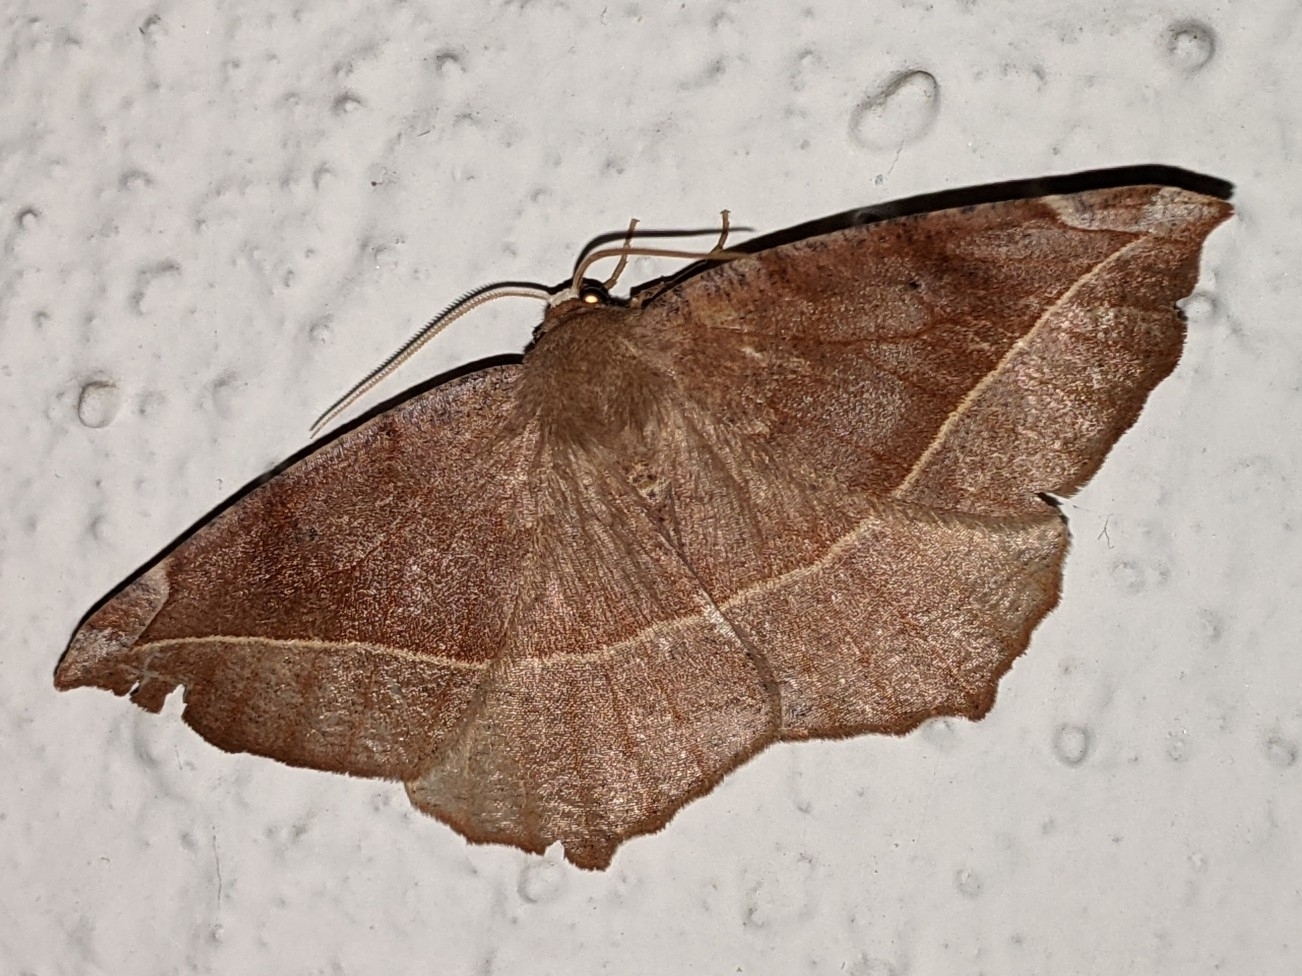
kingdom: Animalia
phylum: Arthropoda
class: Insecta
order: Lepidoptera
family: Geometridae
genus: Eutrapela
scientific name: Eutrapela clemataria
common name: Curved-toothed geometer
